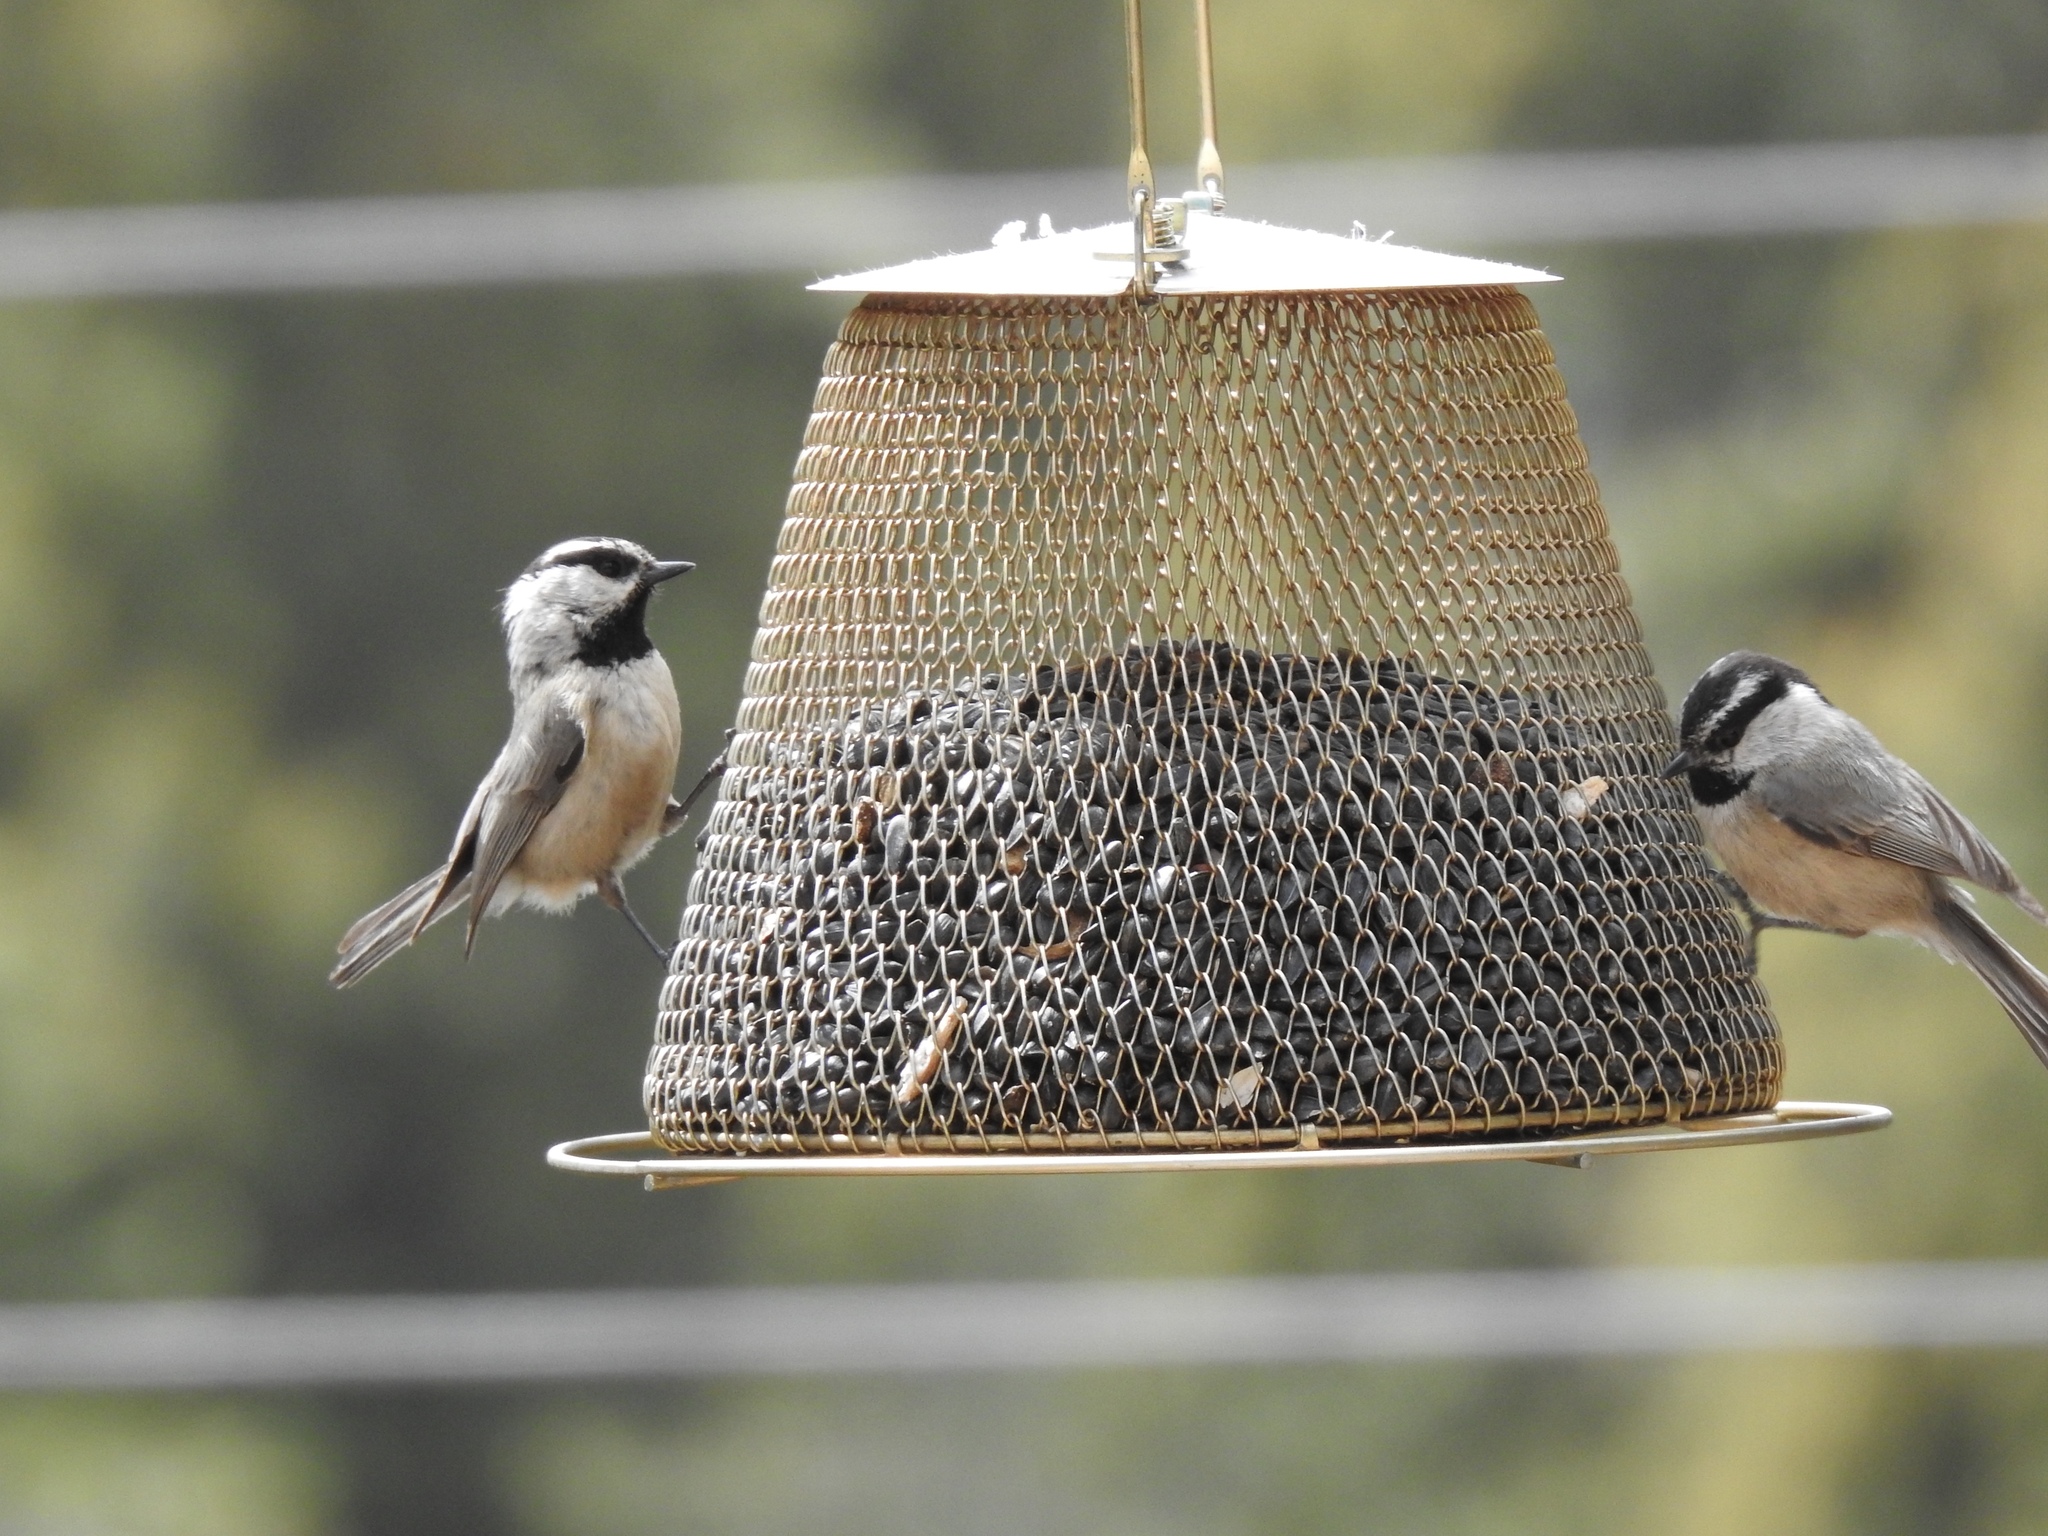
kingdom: Animalia
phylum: Chordata
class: Aves
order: Passeriformes
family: Paridae
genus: Poecile
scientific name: Poecile gambeli
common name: Mountain chickadee
